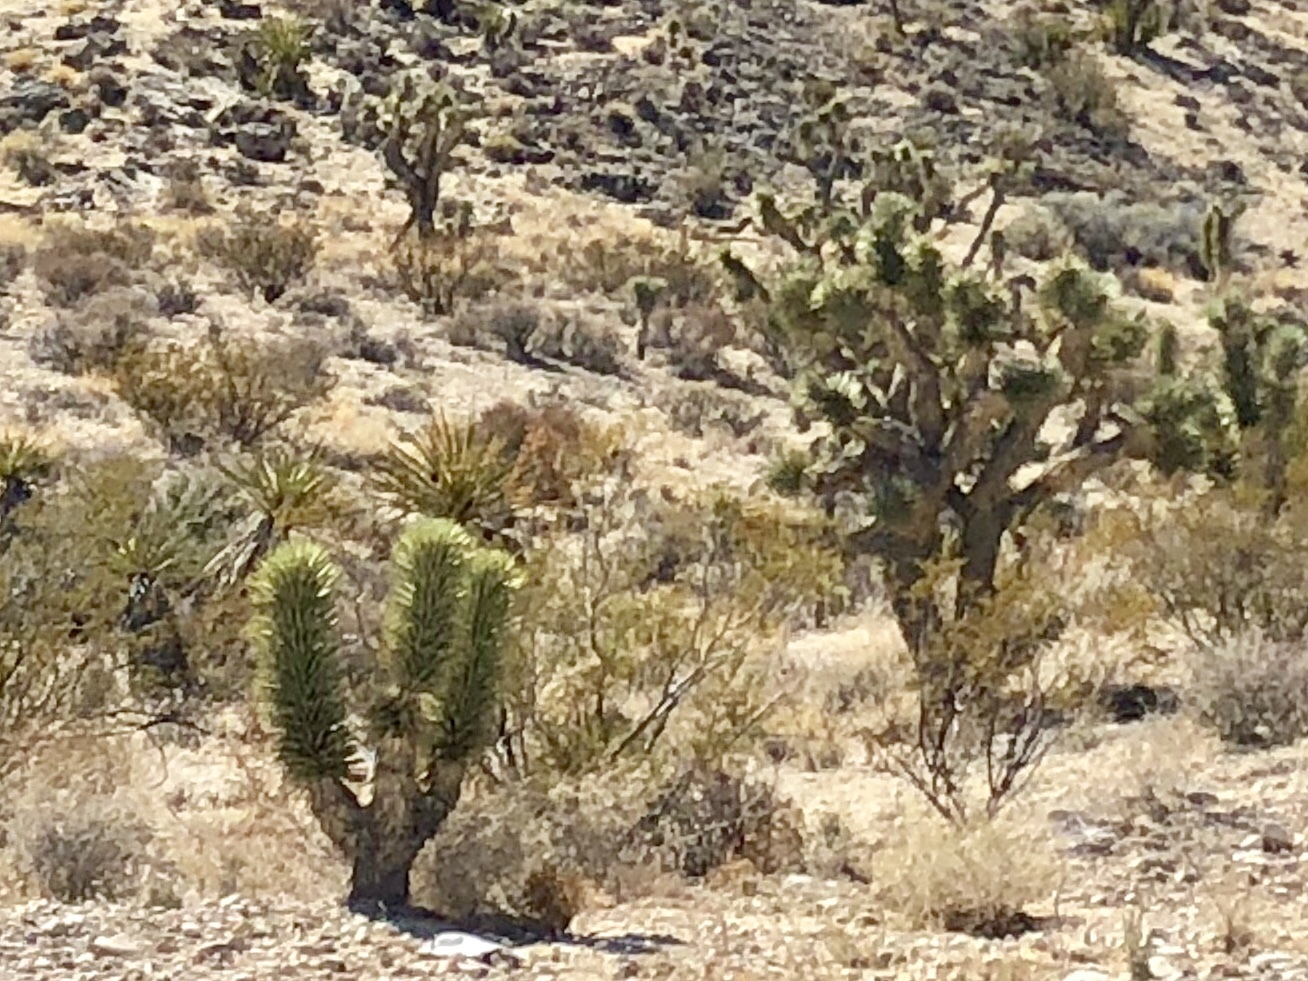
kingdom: Plantae
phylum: Tracheophyta
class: Liliopsida
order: Asparagales
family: Asparagaceae
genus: Yucca
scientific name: Yucca brevifolia
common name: Joshua tree
